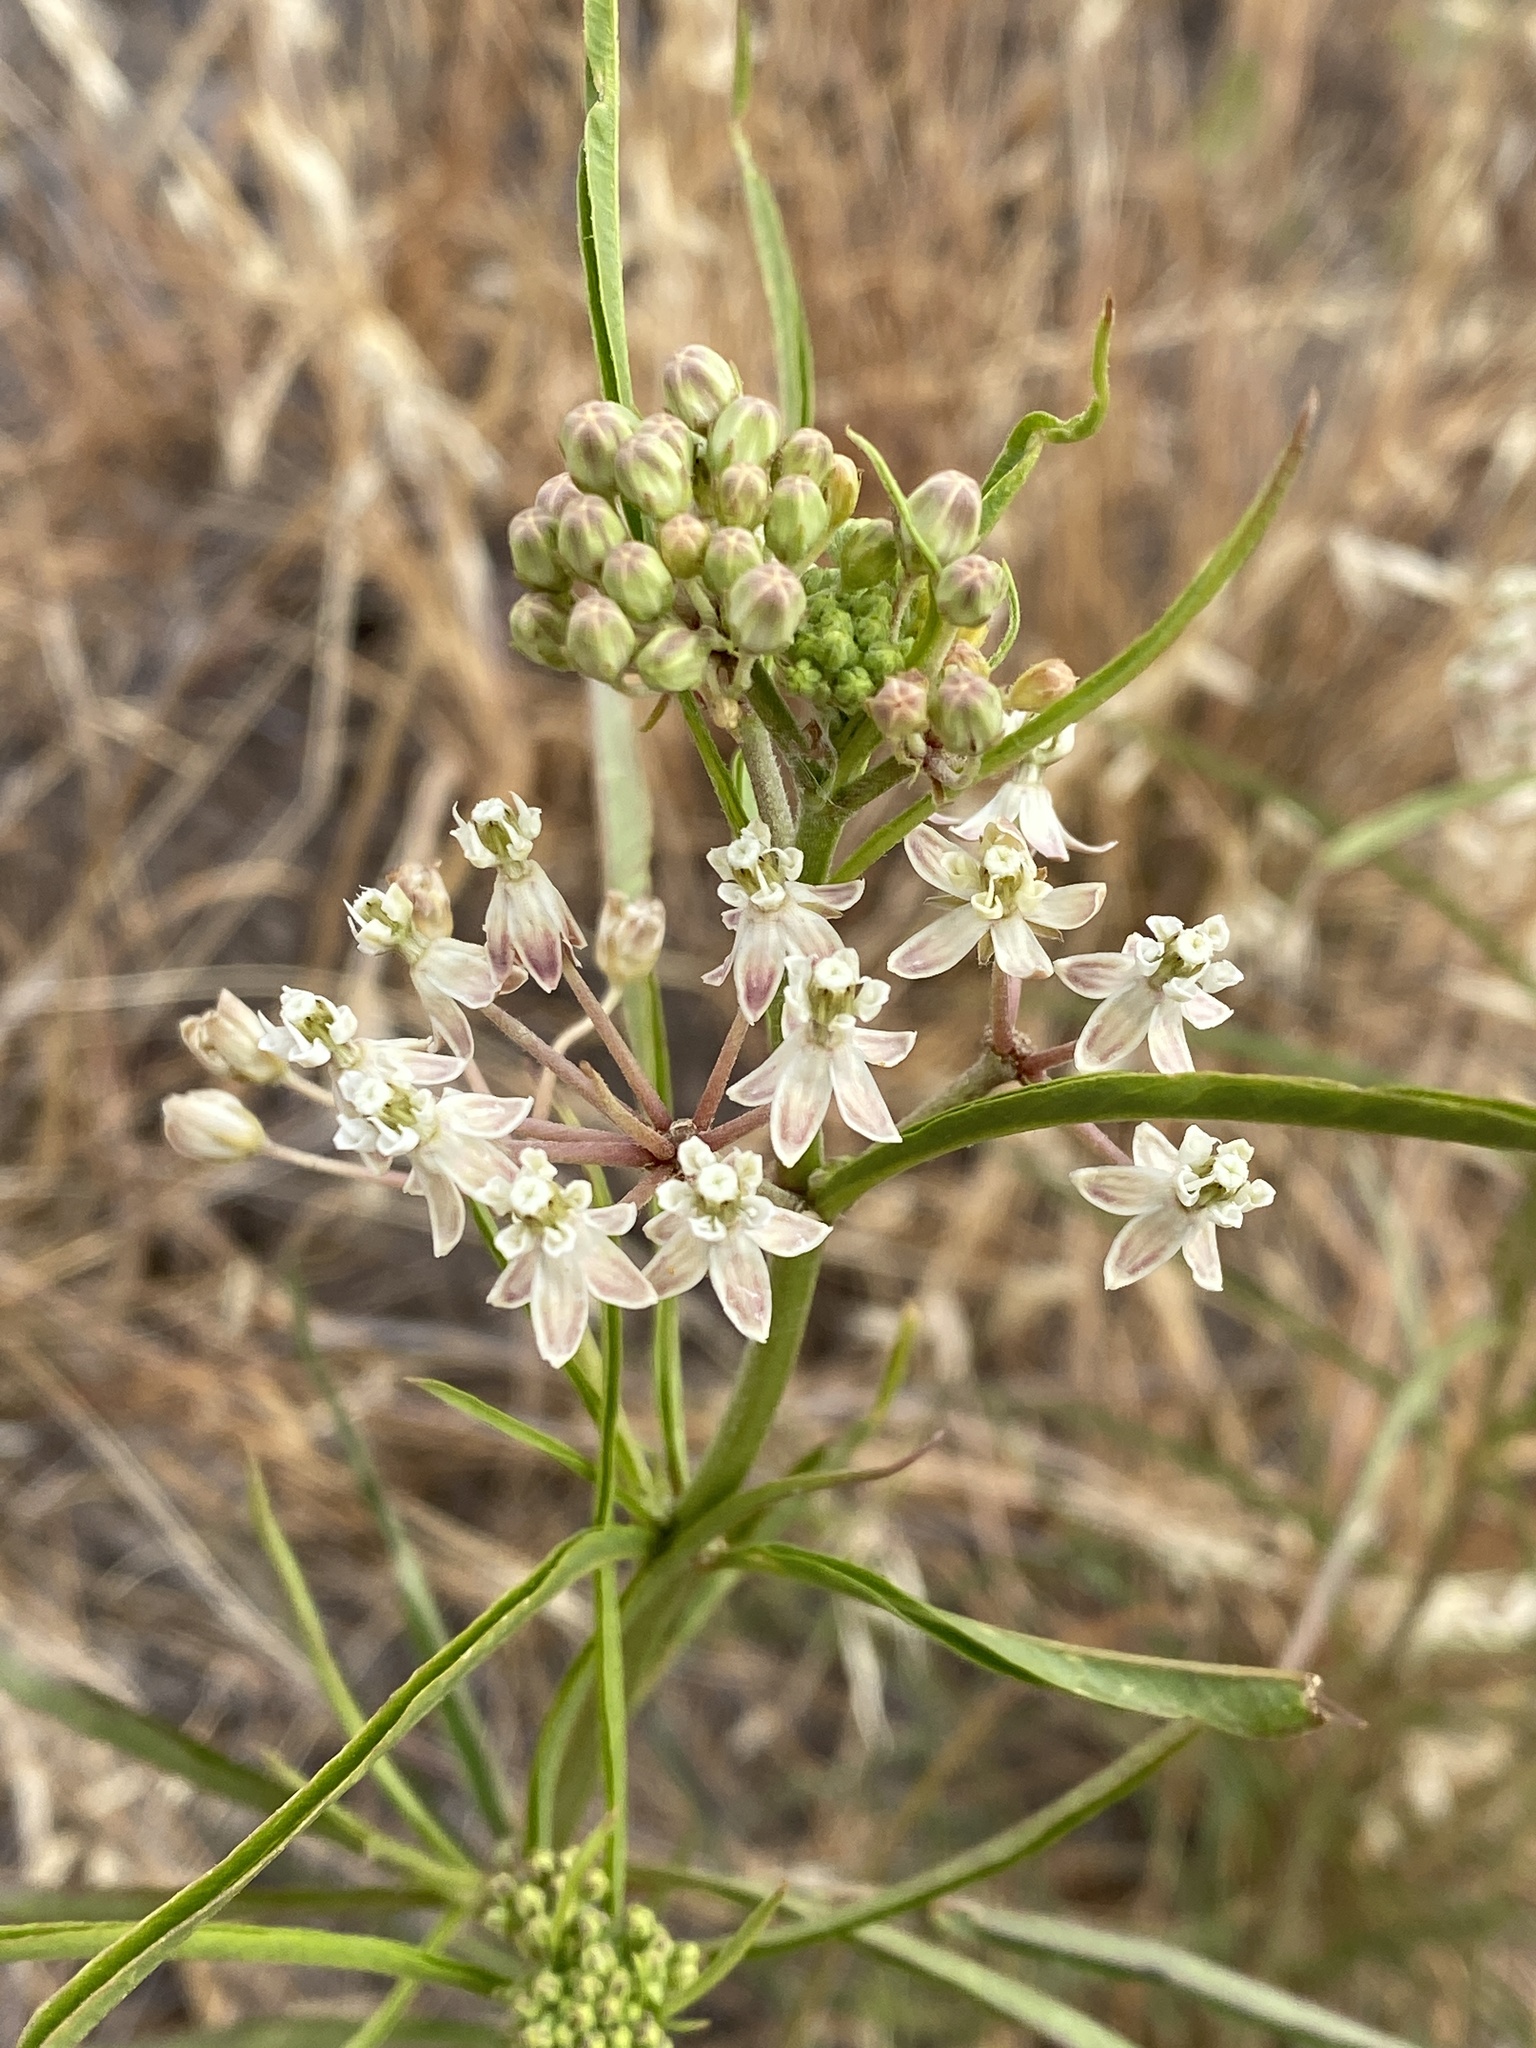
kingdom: Plantae
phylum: Tracheophyta
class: Magnoliopsida
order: Gentianales
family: Apocynaceae
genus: Asclepias
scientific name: Asclepias fascicularis
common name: Mexican milkweed
